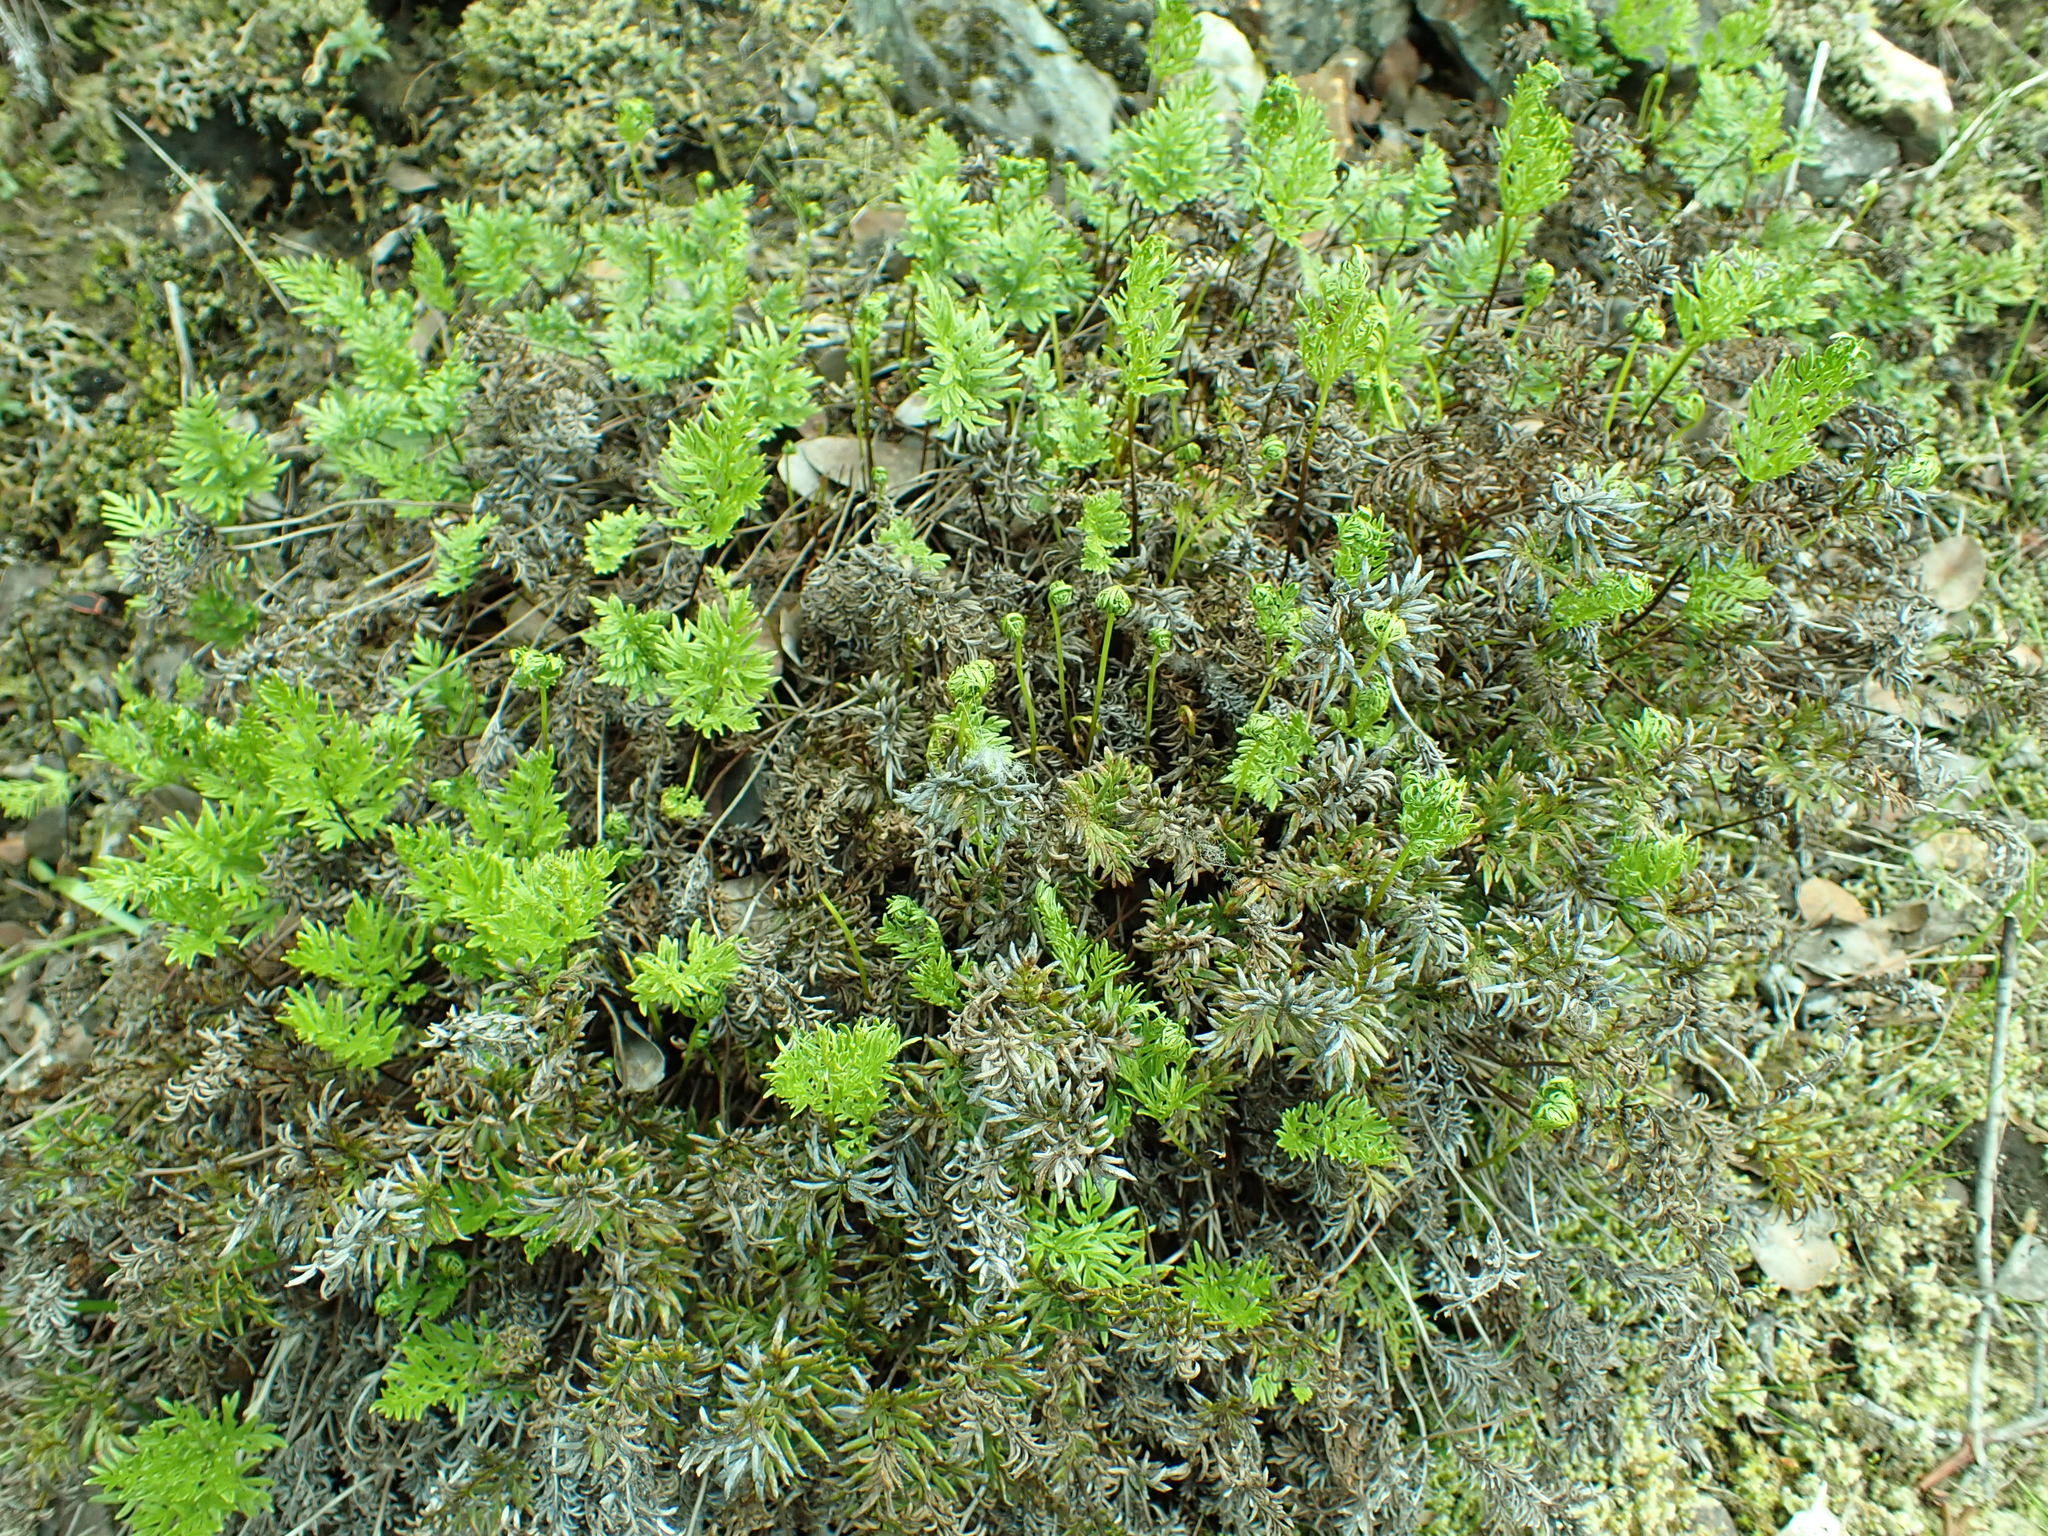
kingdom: Plantae
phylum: Tracheophyta
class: Polypodiopsida
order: Polypodiales
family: Pteridaceae
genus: Aspidotis
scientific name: Aspidotis densa
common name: Indian's dream
